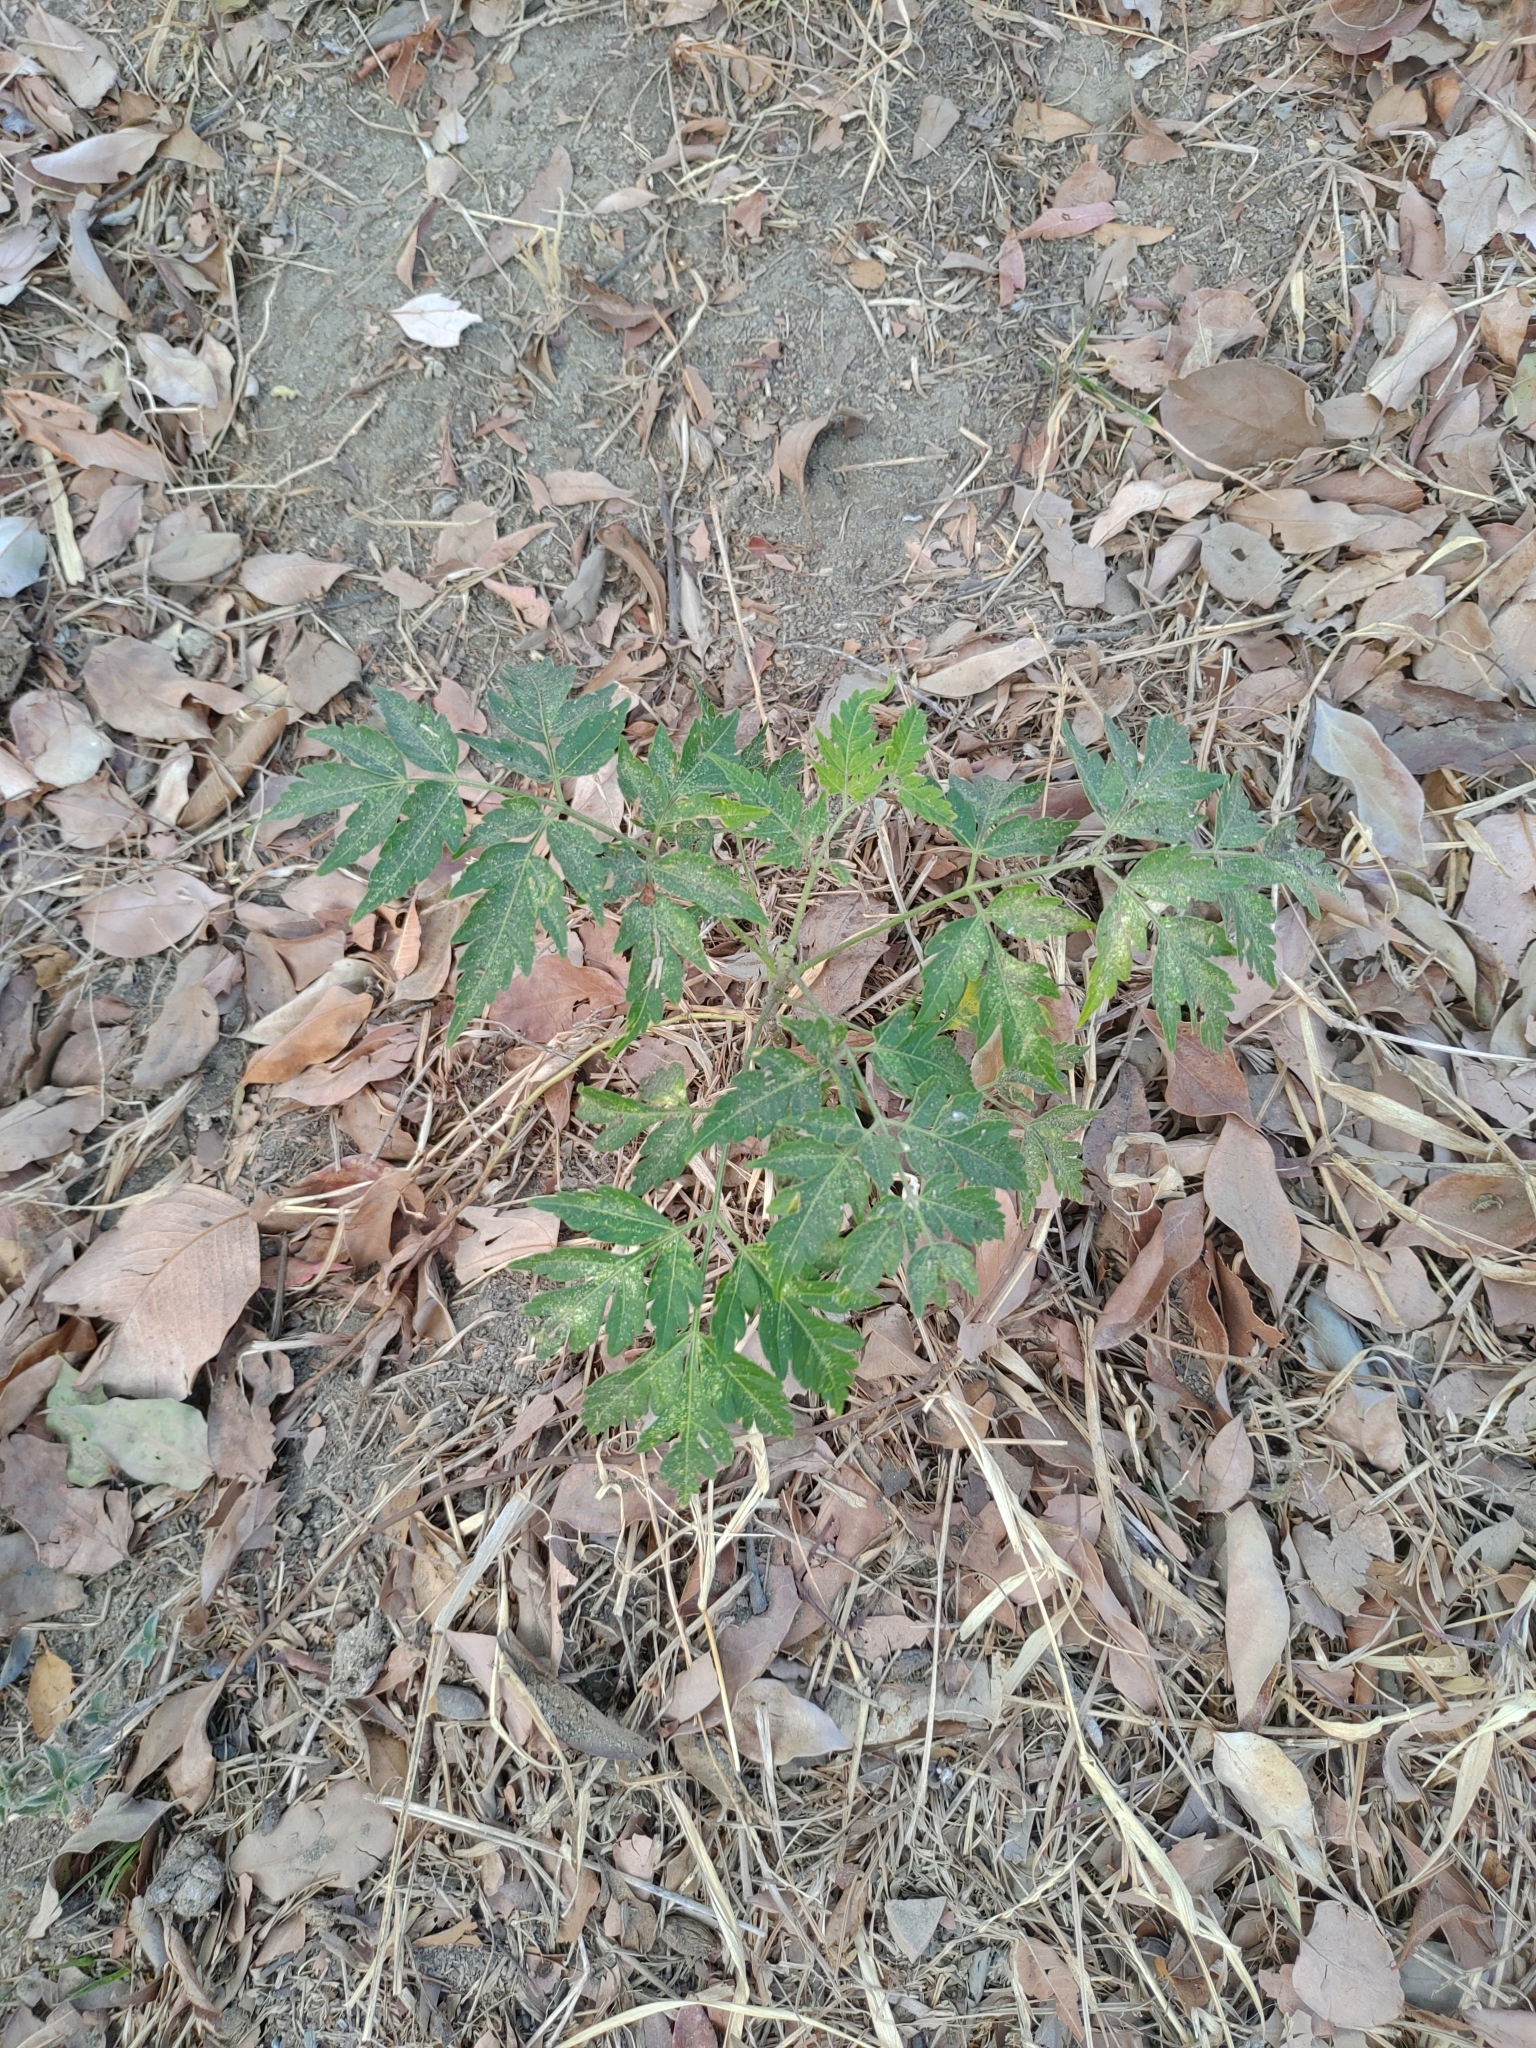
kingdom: Plantae
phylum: Tracheophyta
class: Magnoliopsida
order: Sapindales
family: Meliaceae
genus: Melia
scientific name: Melia azedarach
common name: Chinaberrytree
